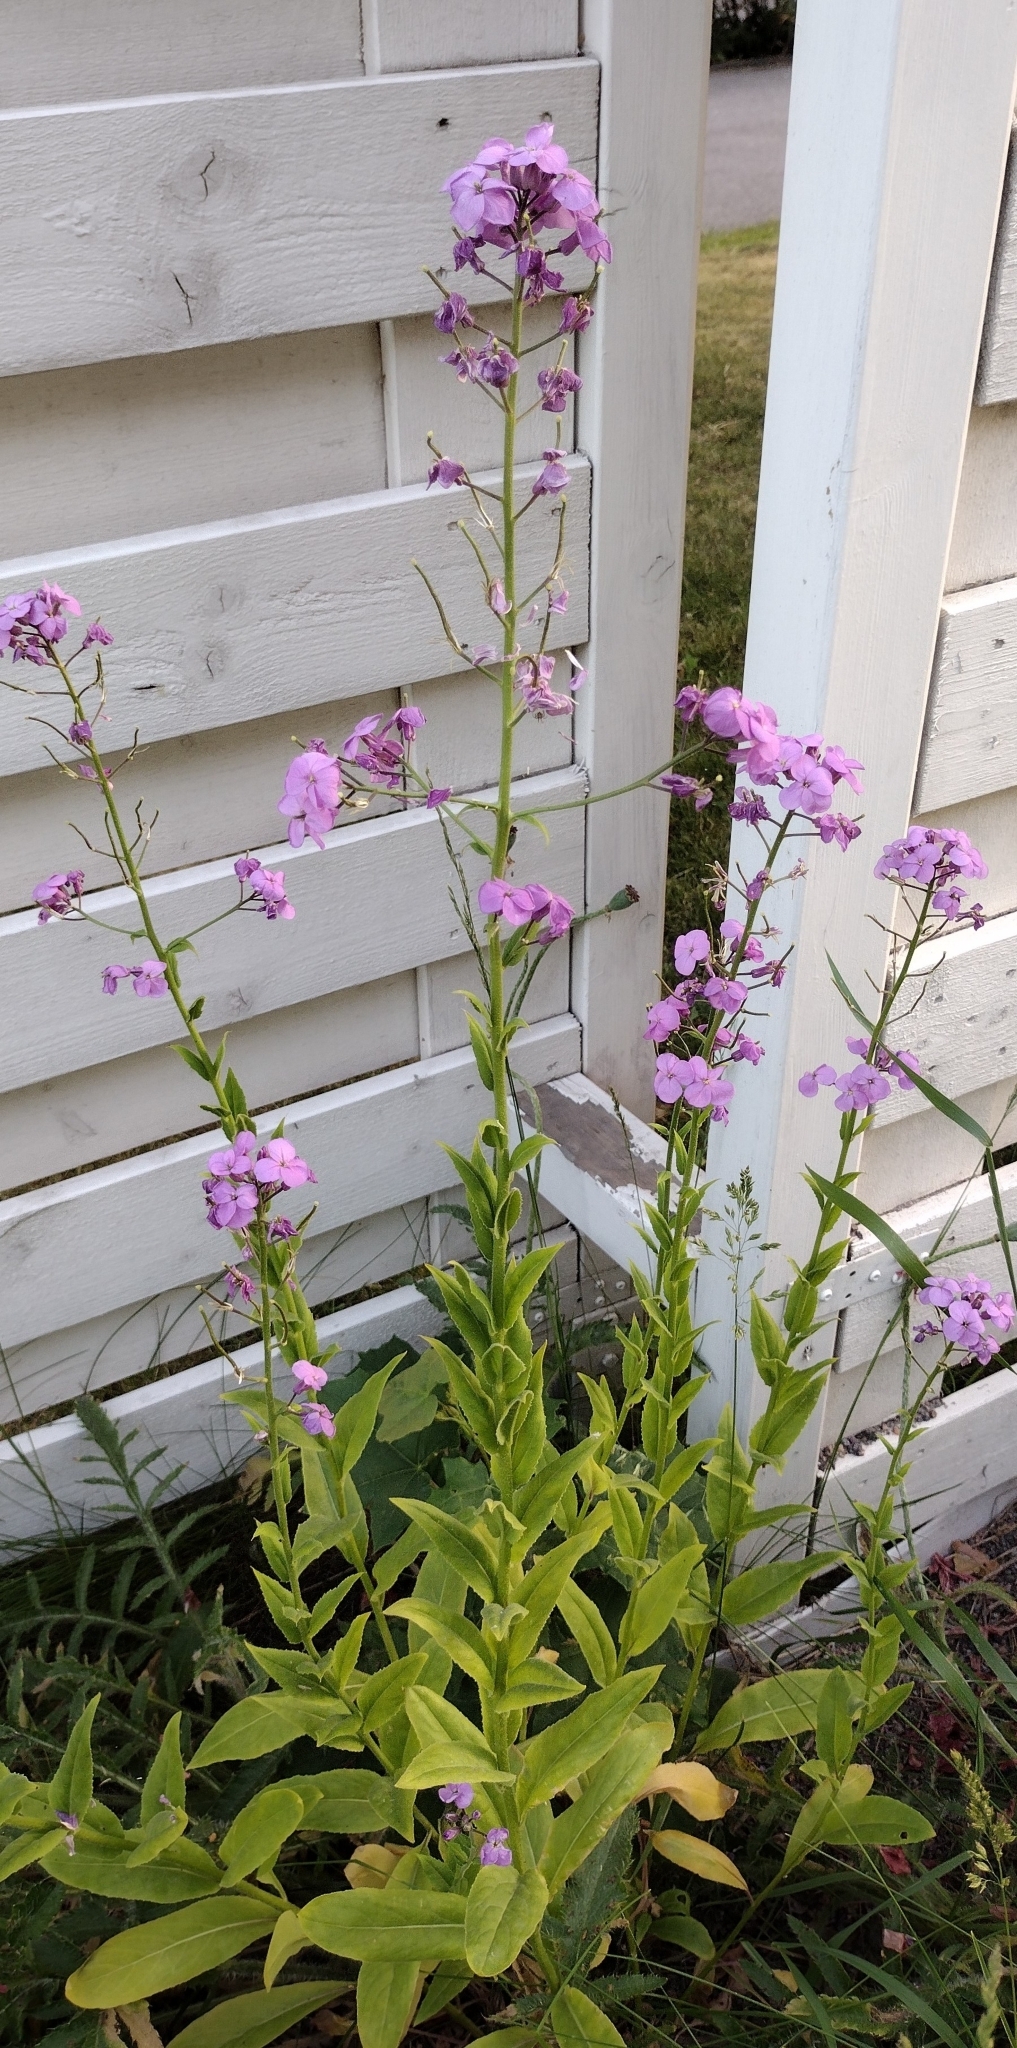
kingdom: Plantae
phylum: Tracheophyta
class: Magnoliopsida
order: Brassicales
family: Brassicaceae
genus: Hesperis
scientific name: Hesperis matronalis
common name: Dame's-violet
